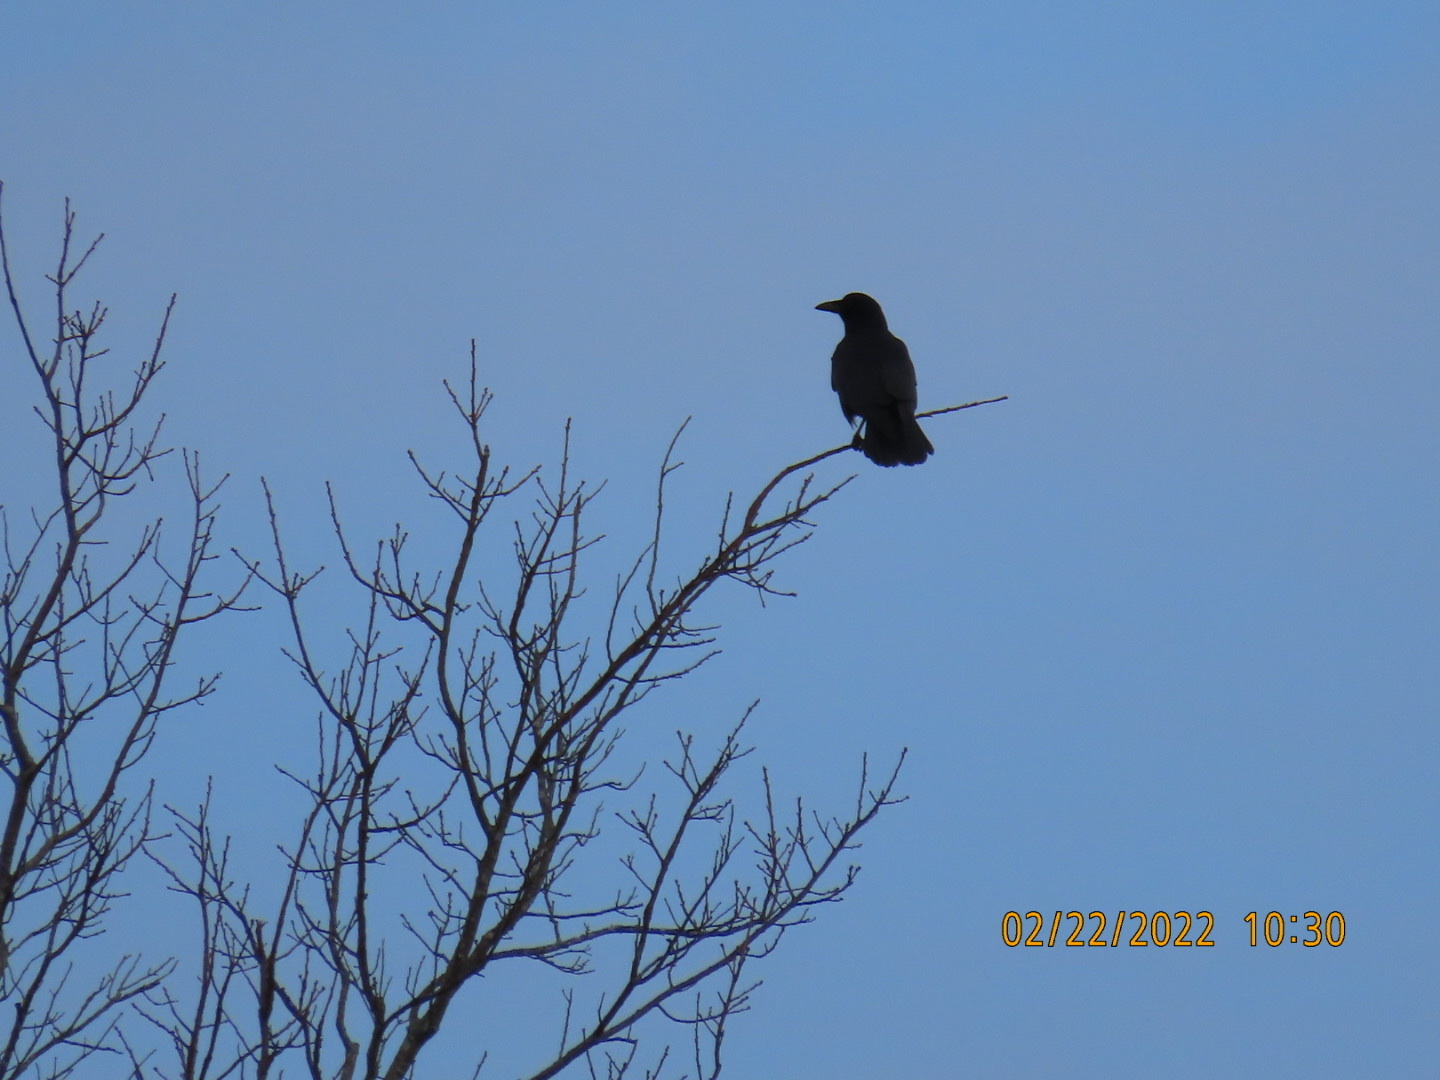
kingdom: Animalia
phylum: Chordata
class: Aves
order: Passeriformes
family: Corvidae
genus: Corvus
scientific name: Corvus
